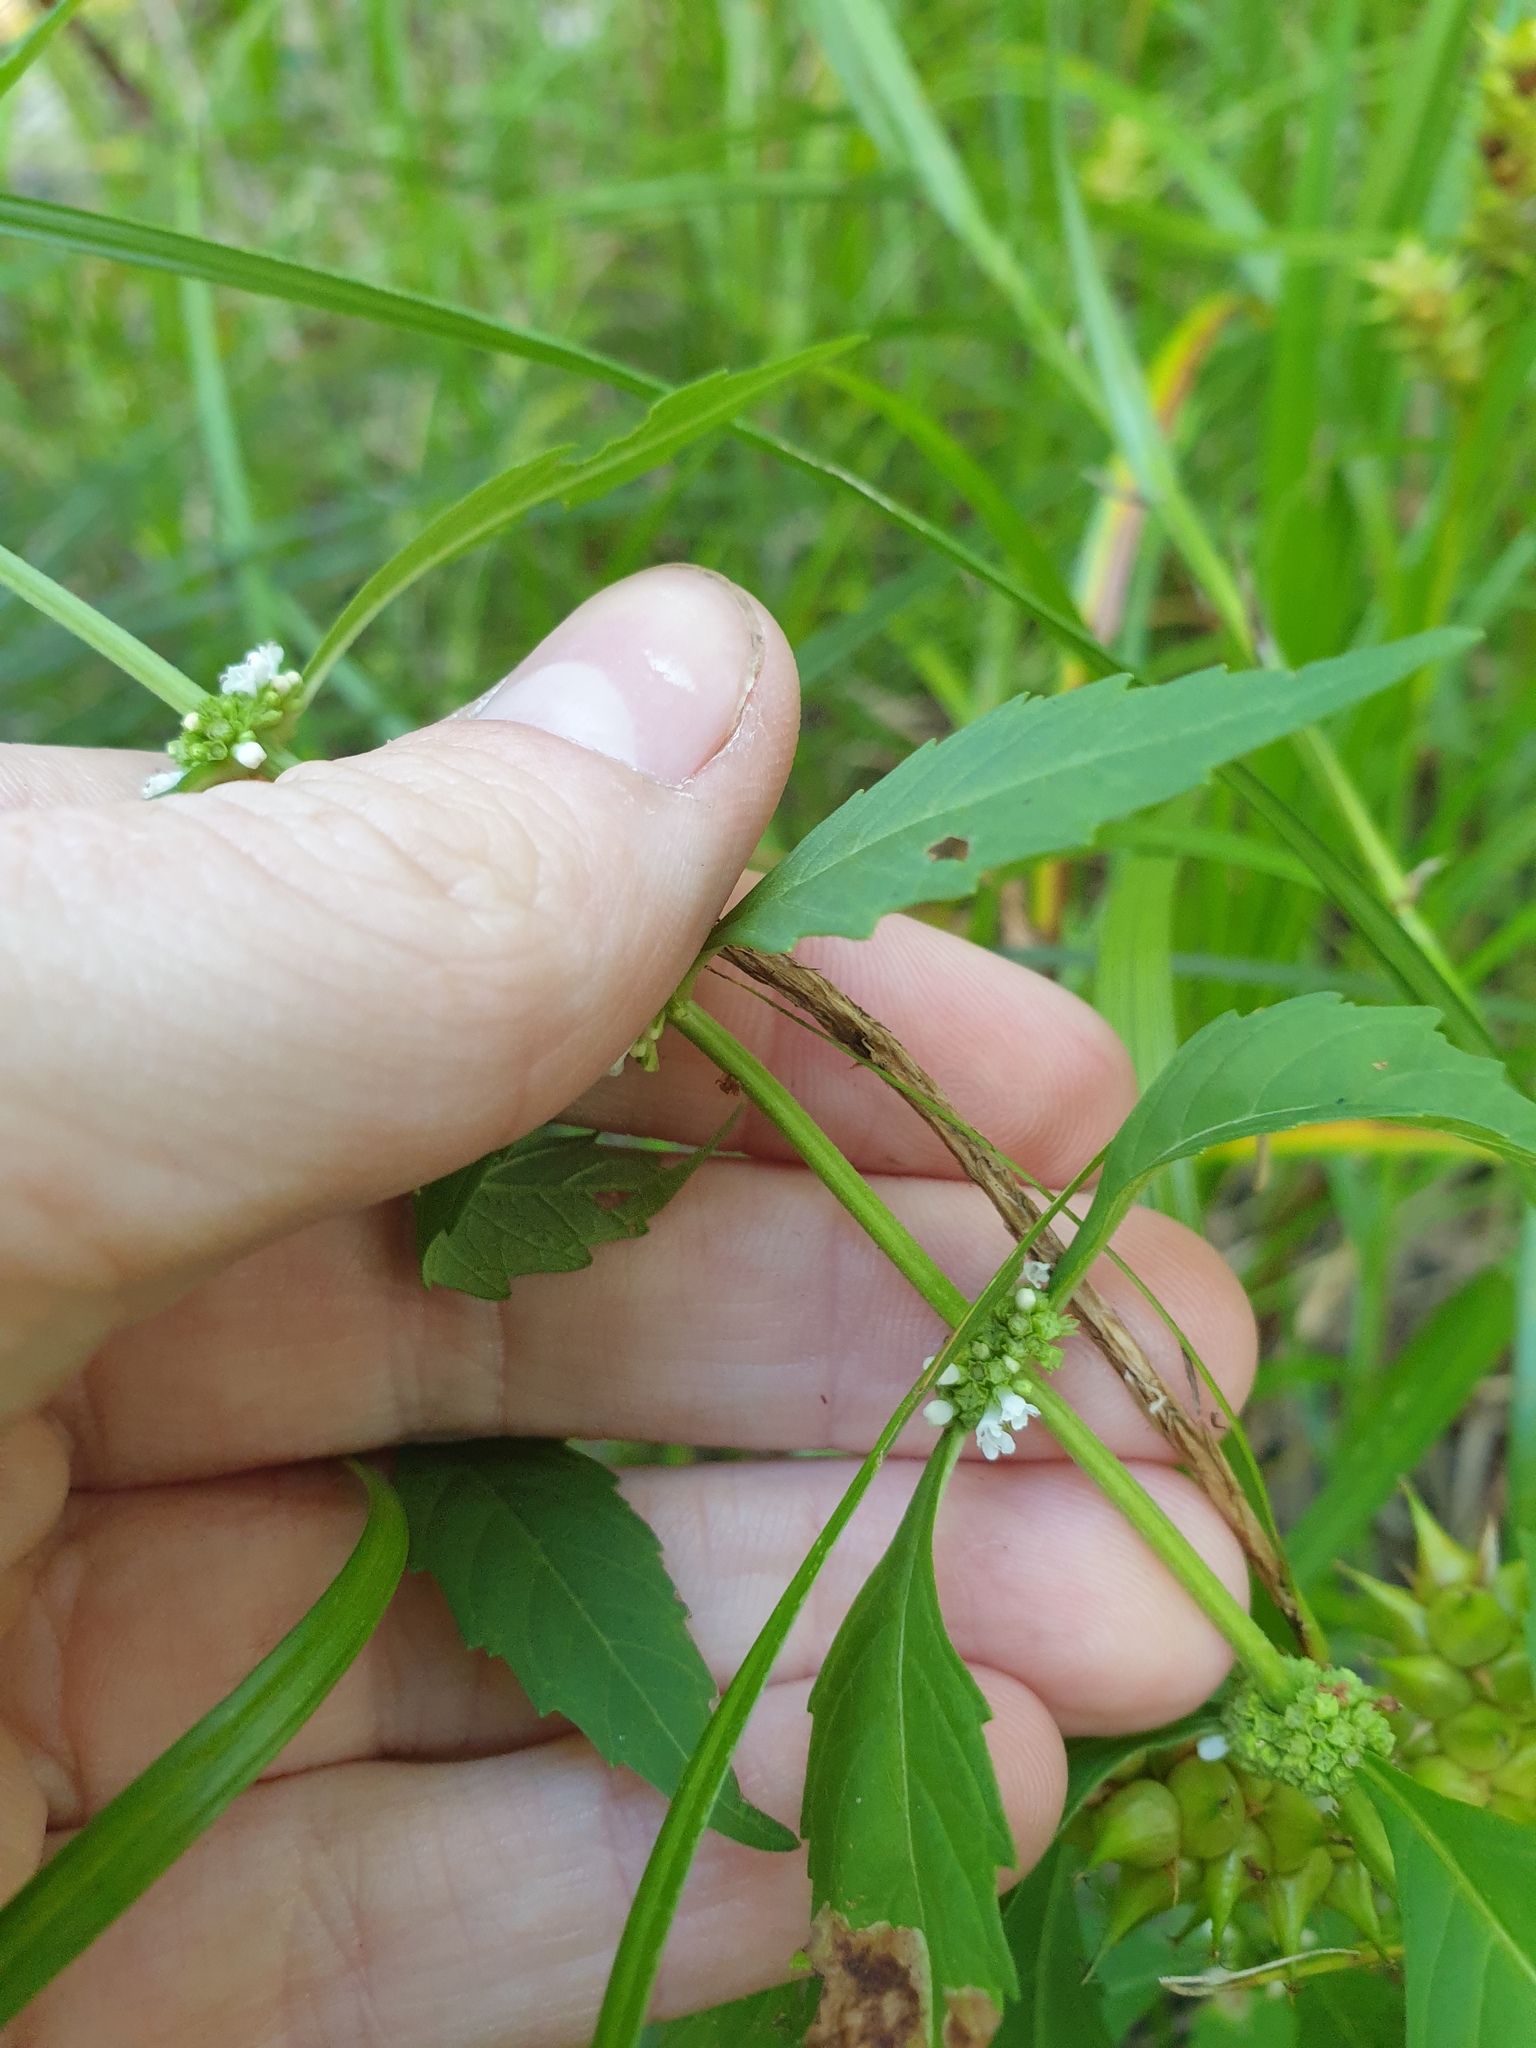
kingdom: Plantae
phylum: Tracheophyta
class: Magnoliopsida
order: Lamiales
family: Lamiaceae
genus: Lycopus
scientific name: Lycopus uniflorus
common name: Northern bugleweed
